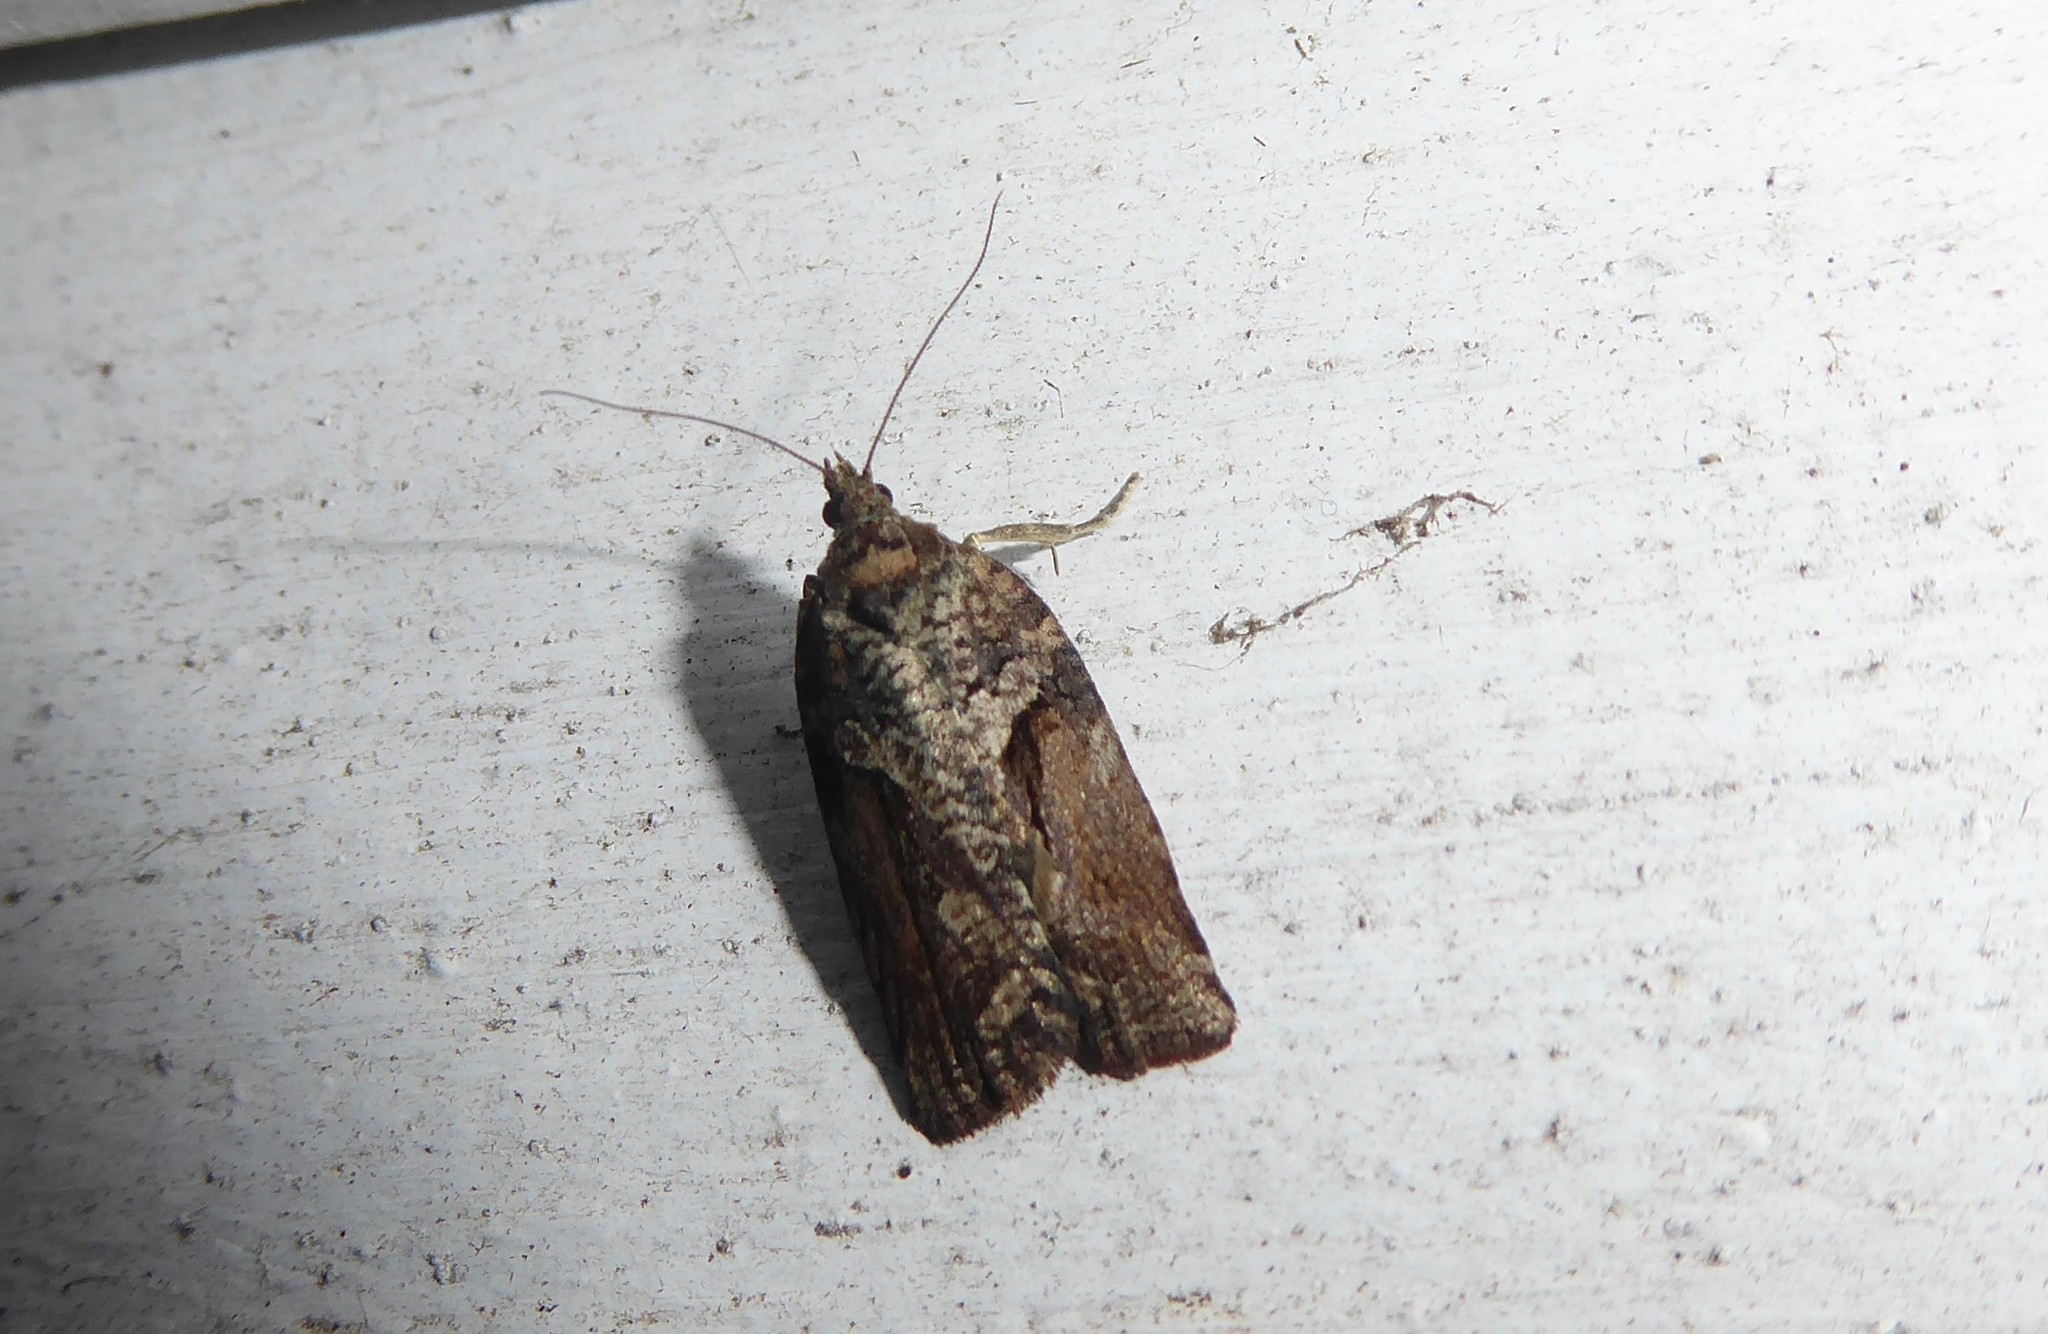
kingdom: Animalia
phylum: Arthropoda
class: Insecta
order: Lepidoptera
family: Tortricidae
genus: Harmologa
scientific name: Harmologa oblongana
